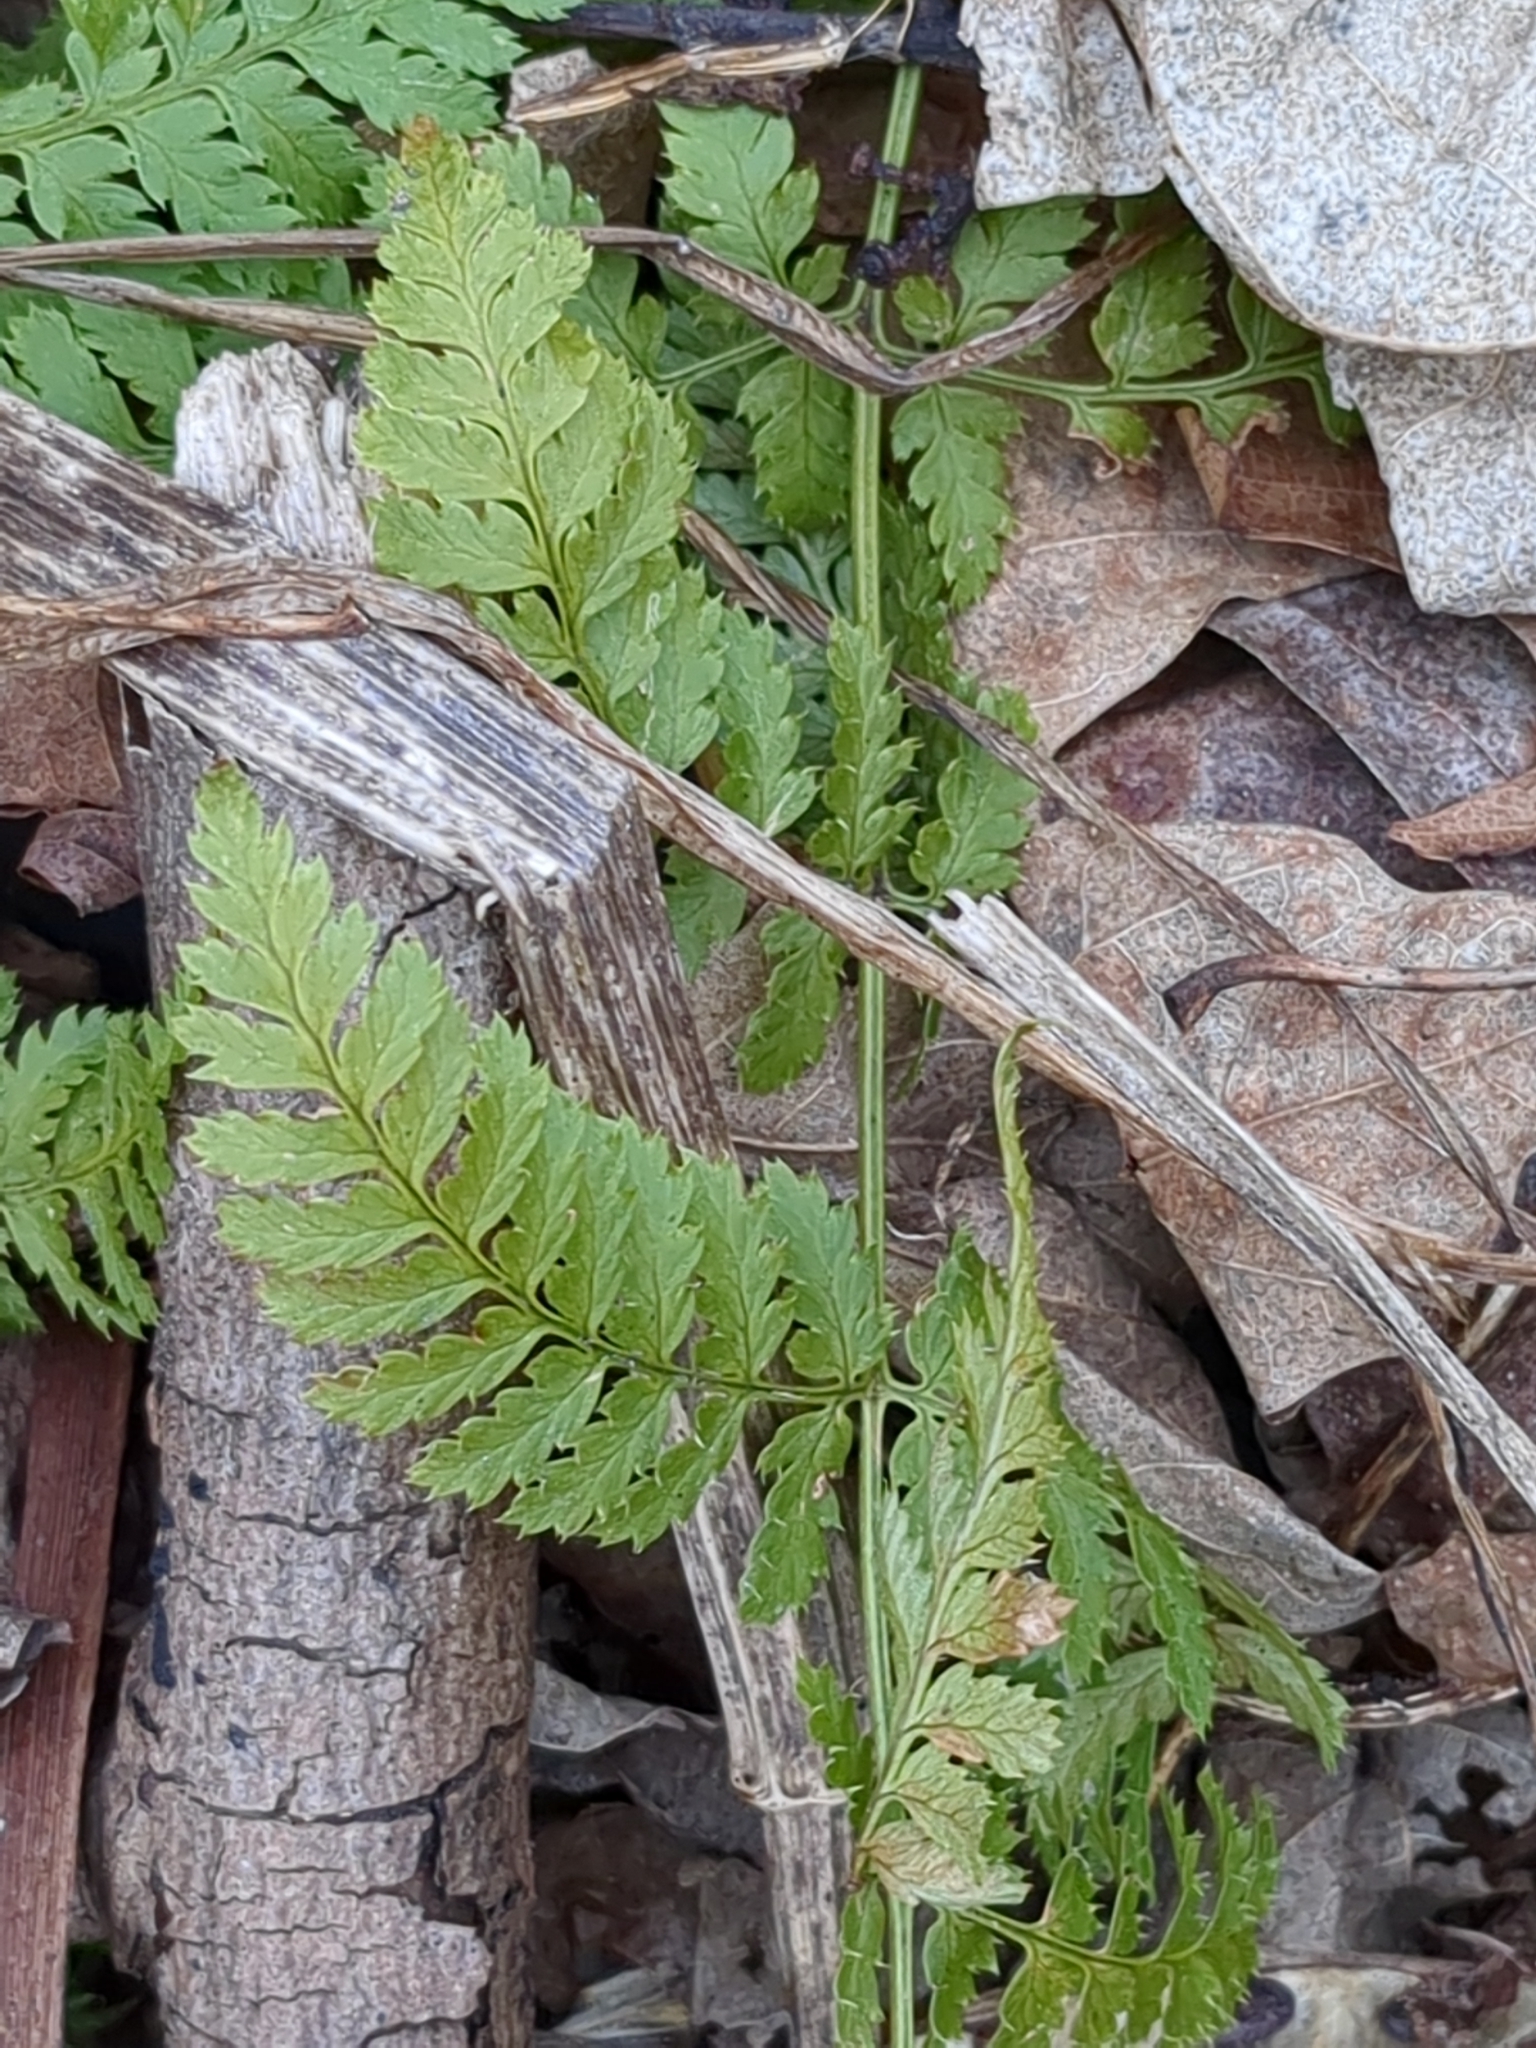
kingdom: Plantae
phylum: Tracheophyta
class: Polypodiopsida
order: Polypodiales
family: Dryopteridaceae
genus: Dryopteris
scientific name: Dryopteris intermedia
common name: Evergreen wood fern
